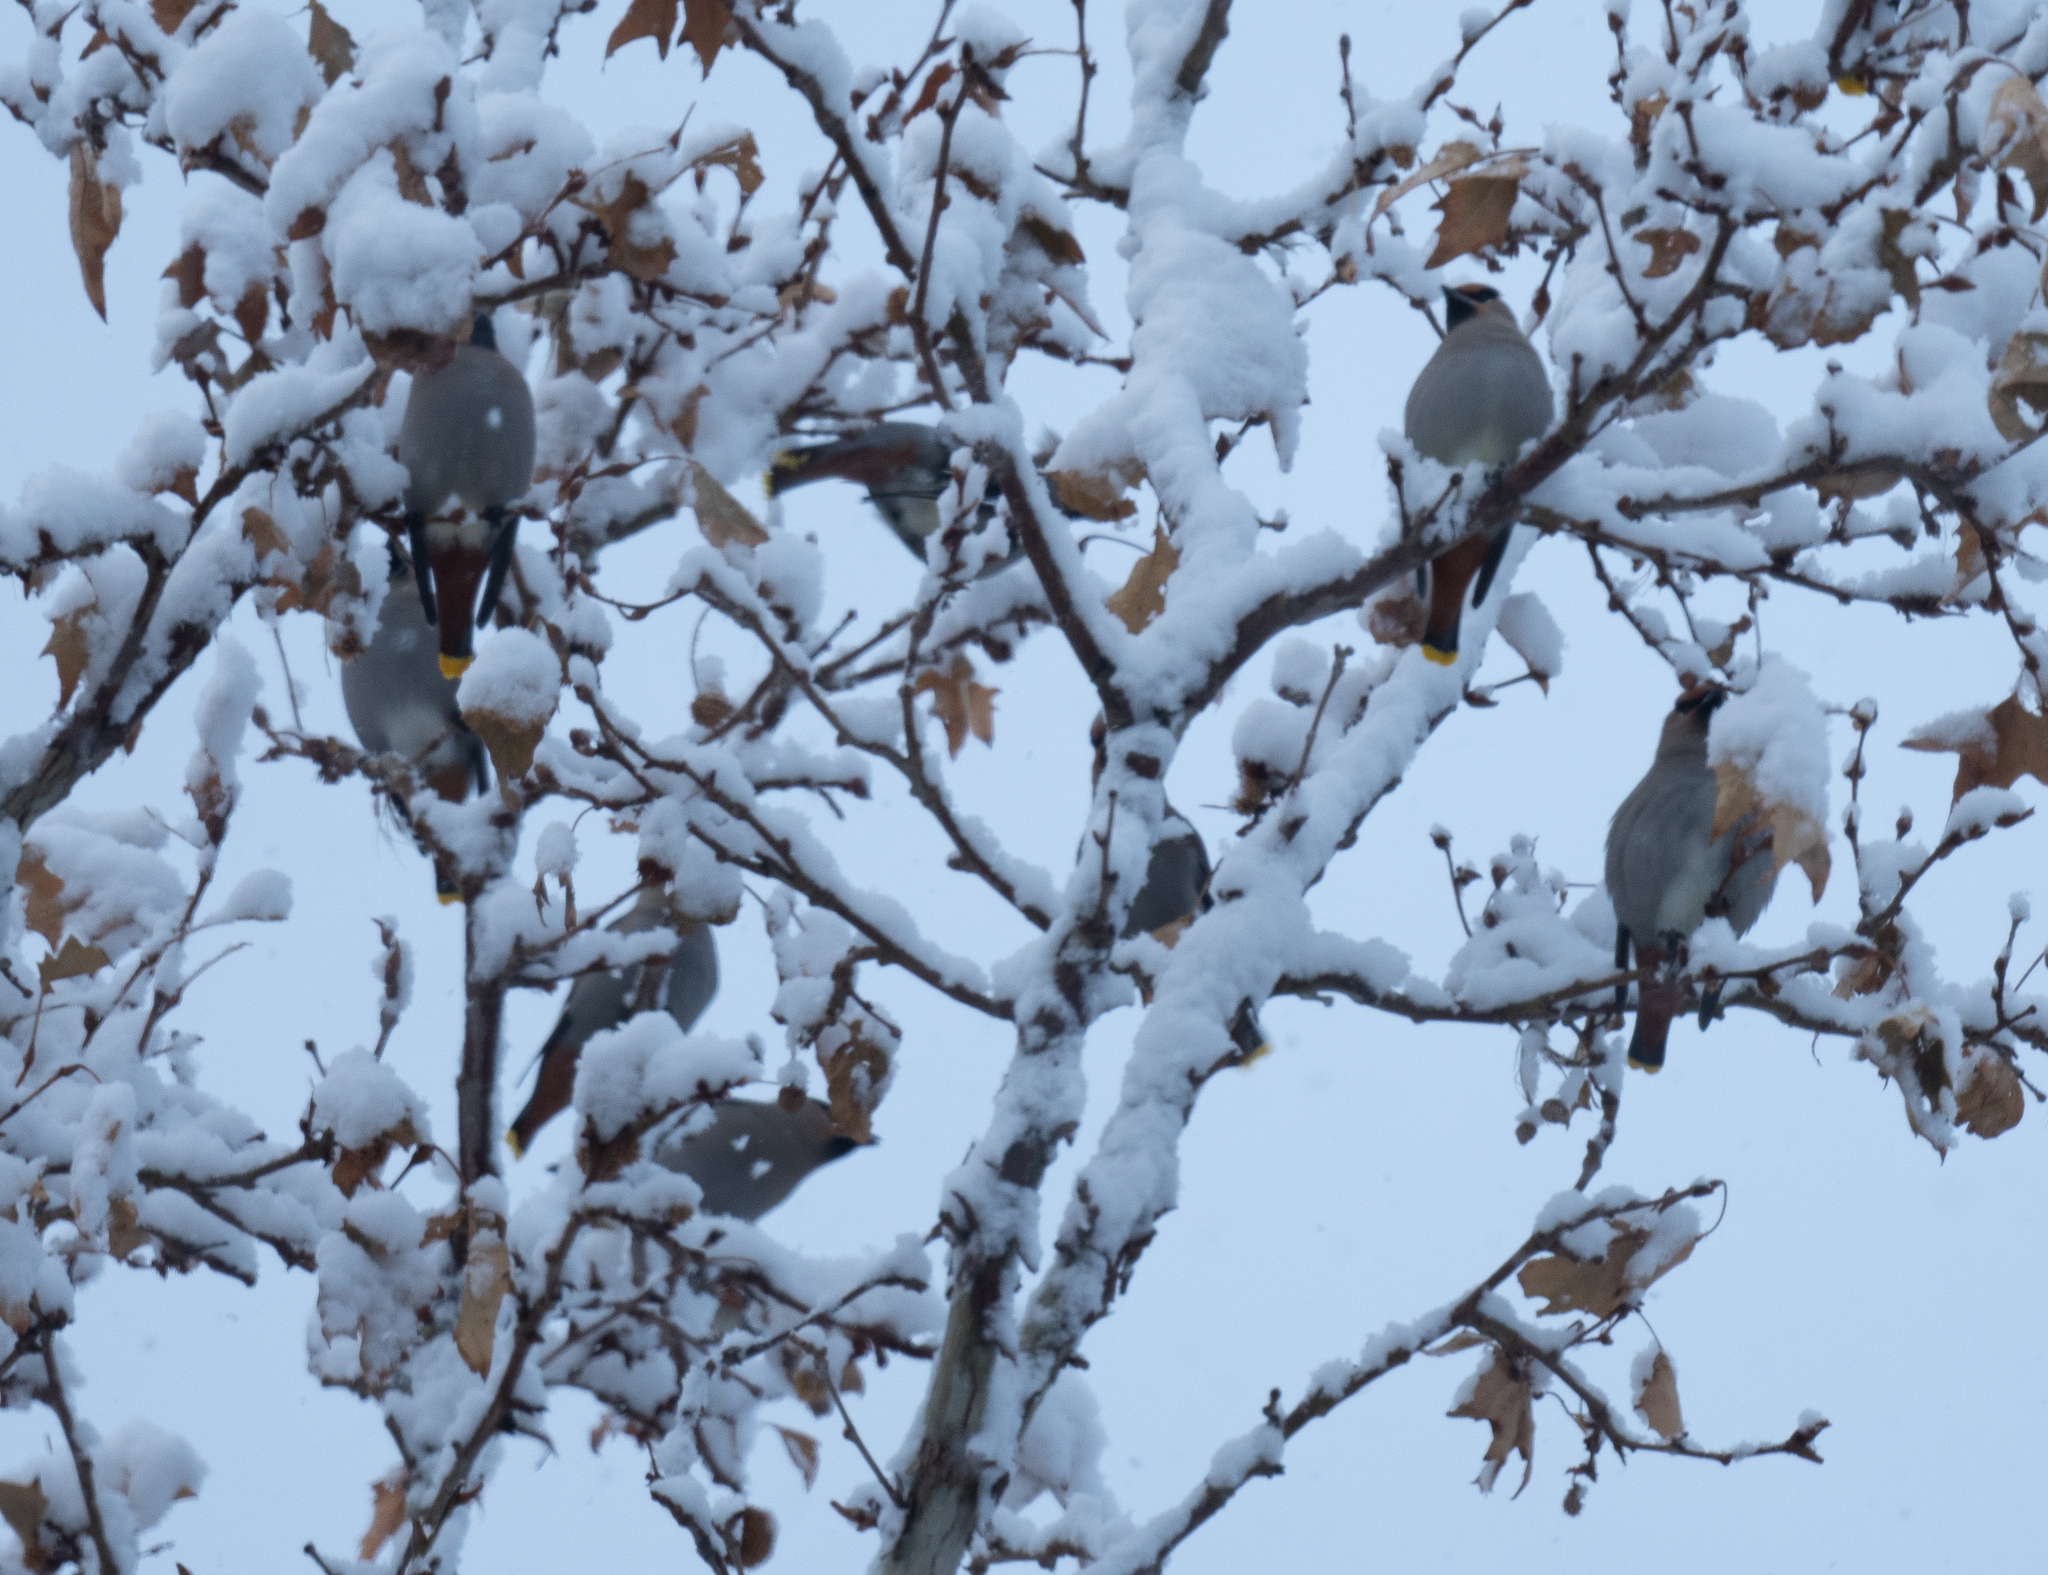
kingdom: Animalia
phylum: Chordata
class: Aves
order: Passeriformes
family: Bombycillidae
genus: Bombycilla
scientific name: Bombycilla garrulus
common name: Bohemian waxwing
